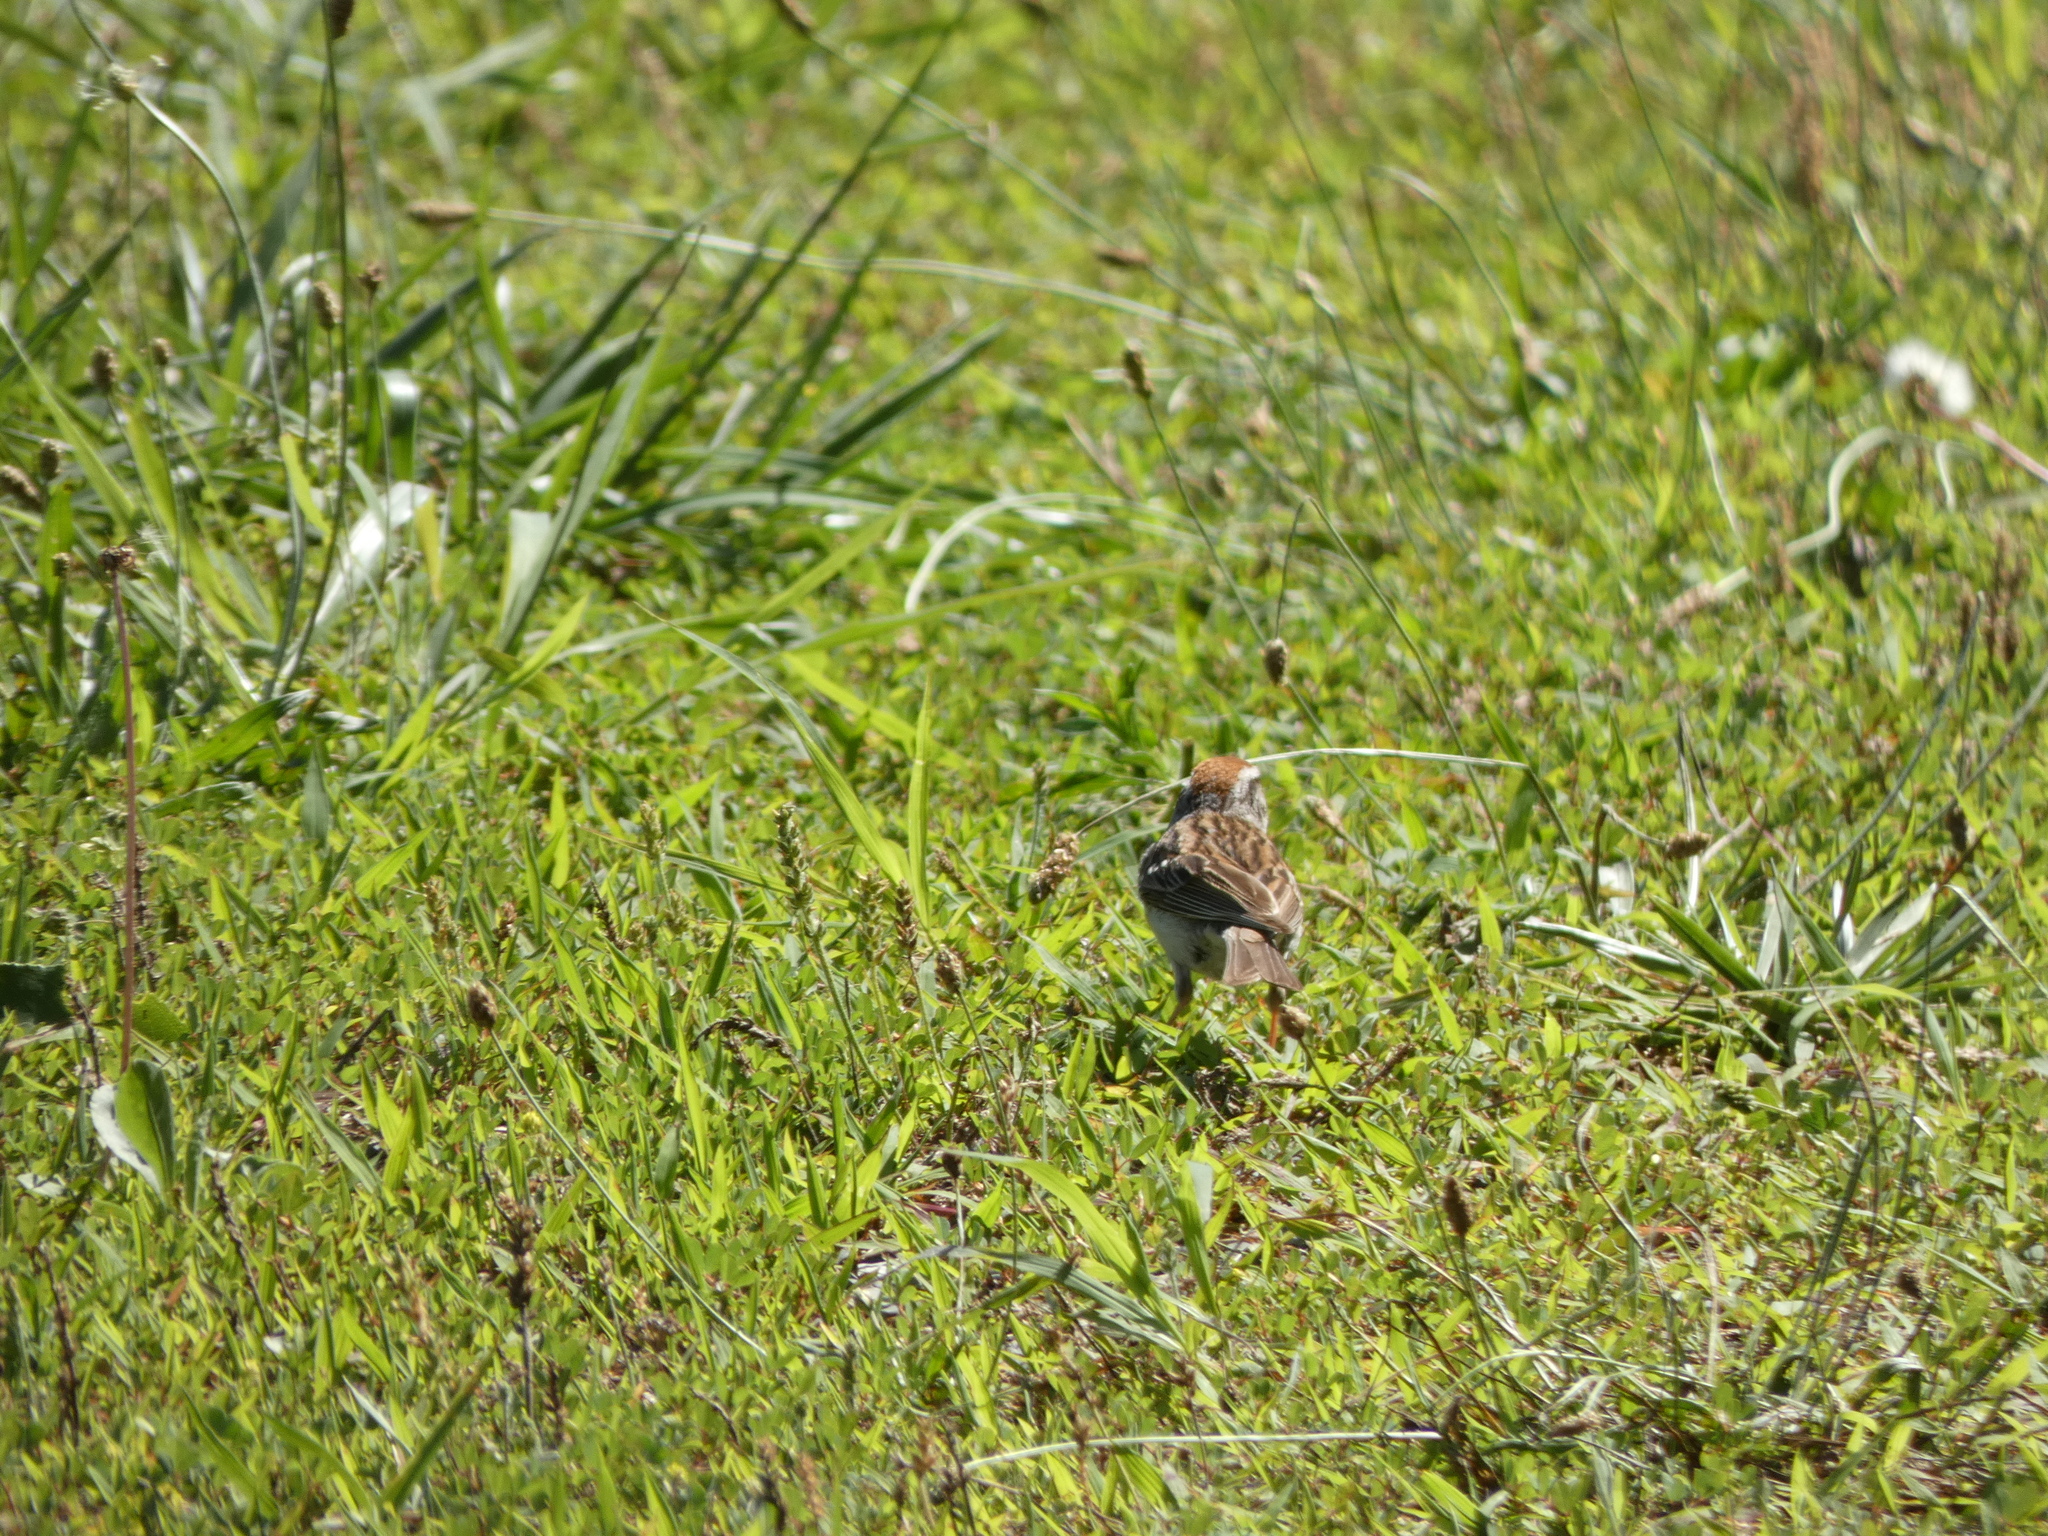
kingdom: Animalia
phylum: Chordata
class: Aves
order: Passeriformes
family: Passerellidae
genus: Spizella
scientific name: Spizella passerina
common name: Chipping sparrow
